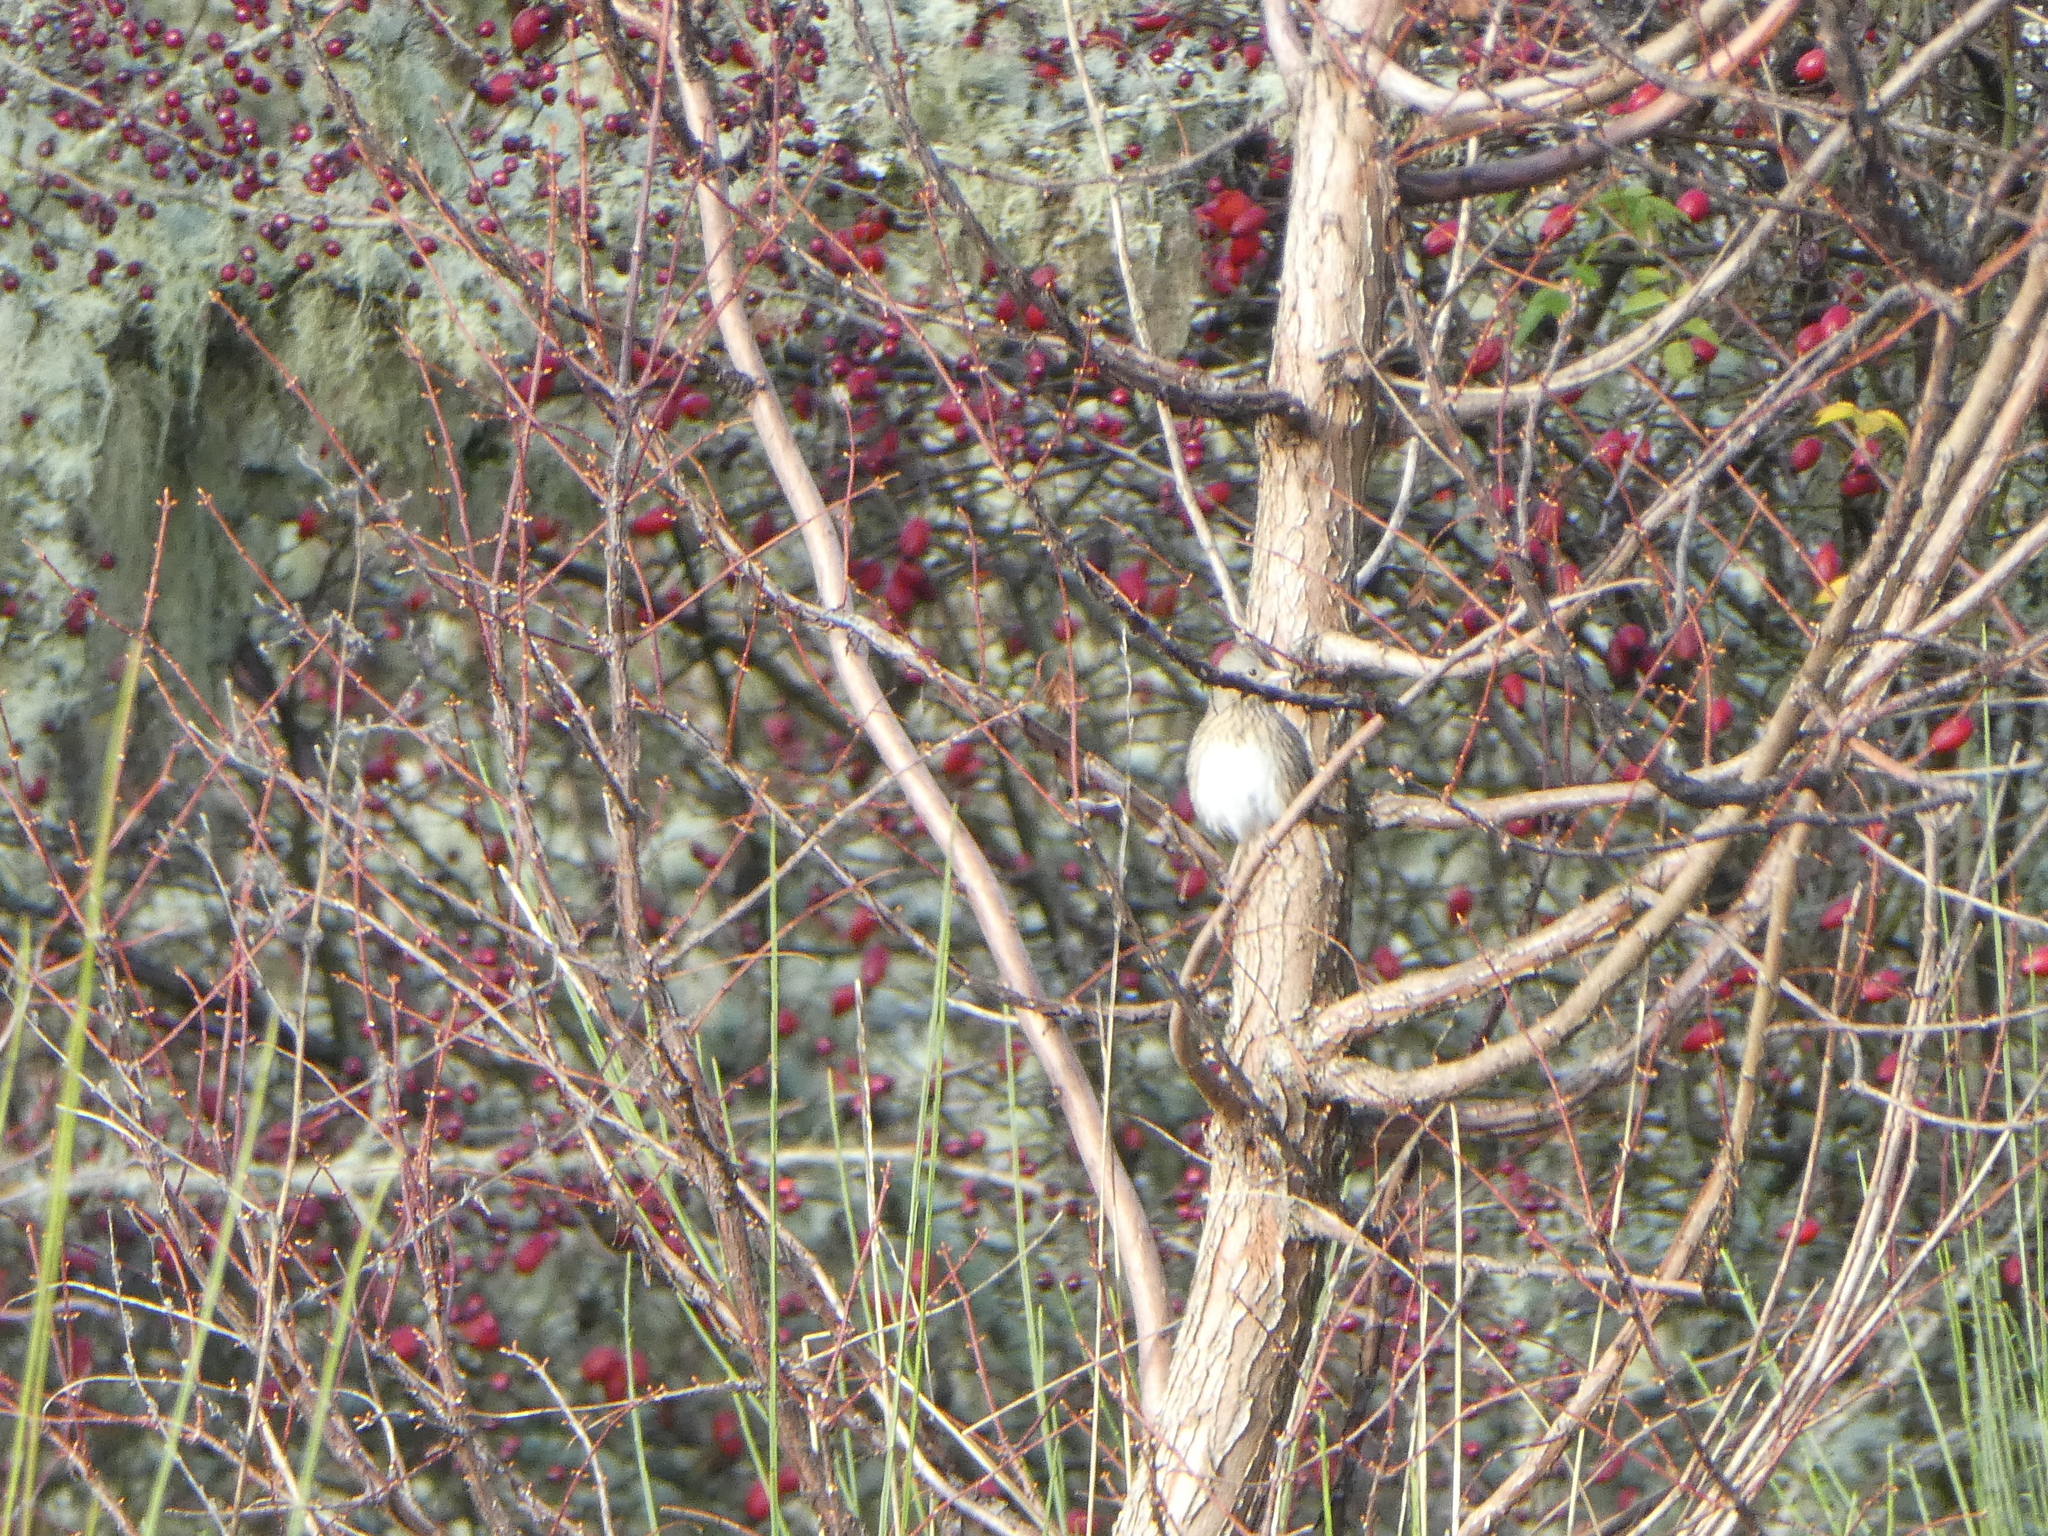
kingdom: Animalia
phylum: Chordata
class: Aves
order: Passeriformes
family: Passerellidae
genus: Melospiza
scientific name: Melospiza lincolnii
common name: Lincoln's sparrow
